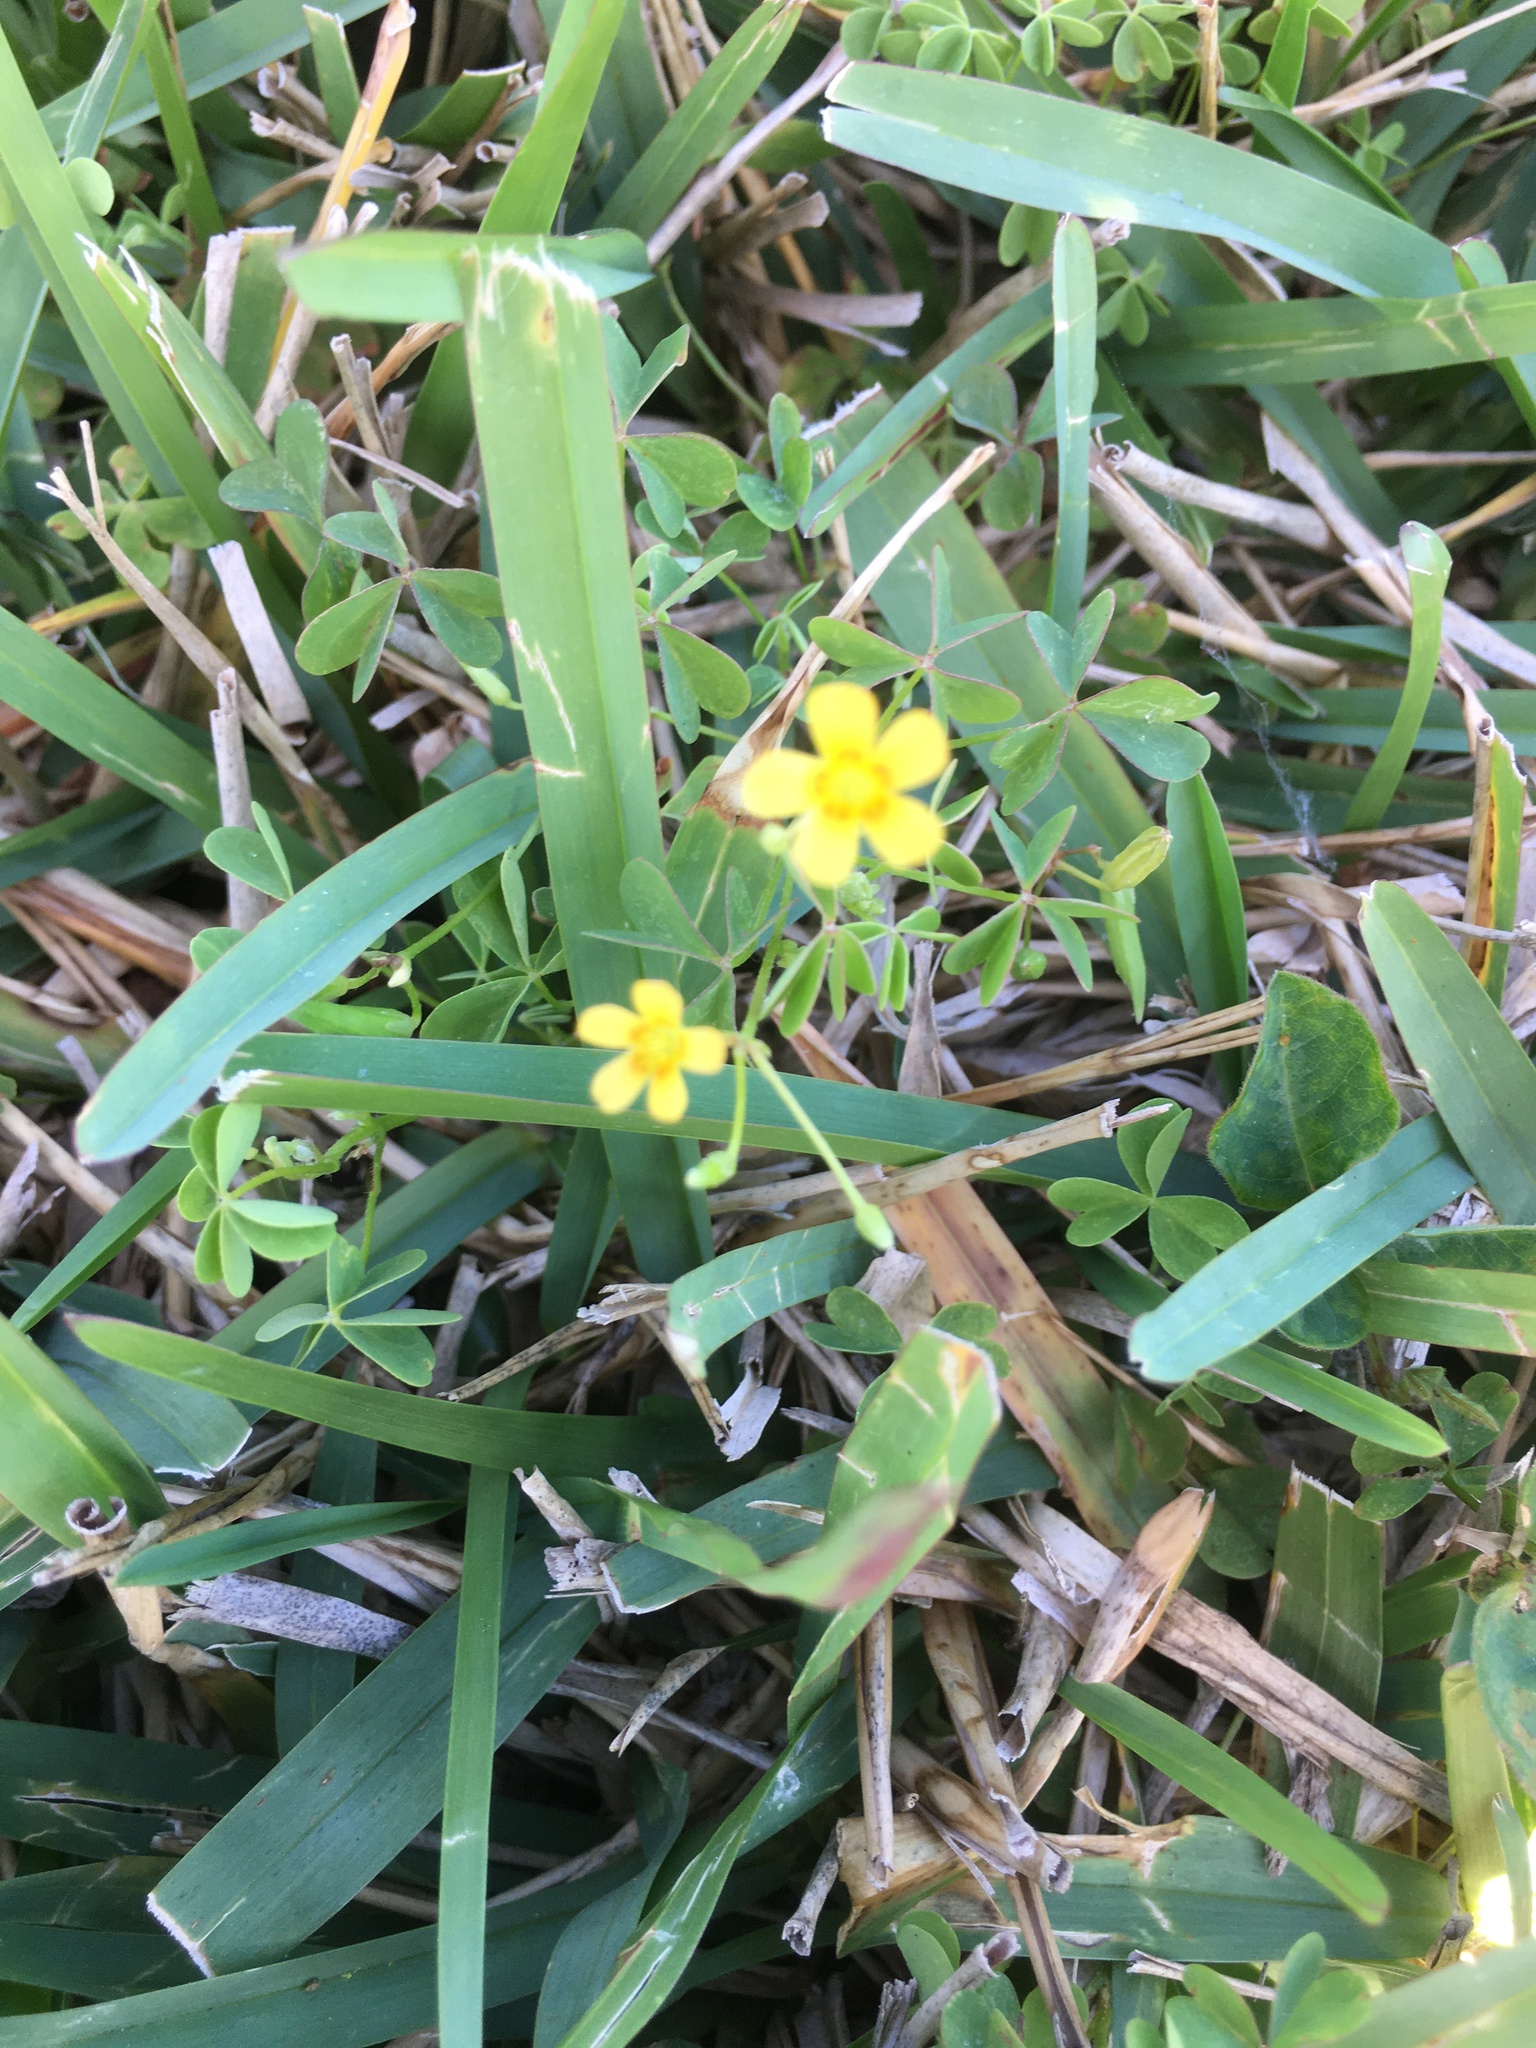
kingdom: Plantae
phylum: Tracheophyta
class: Magnoliopsida
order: Oxalidales
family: Oxalidaceae
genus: Oxalis
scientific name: Oxalis corniculata
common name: Procumbent yellow-sorrel
